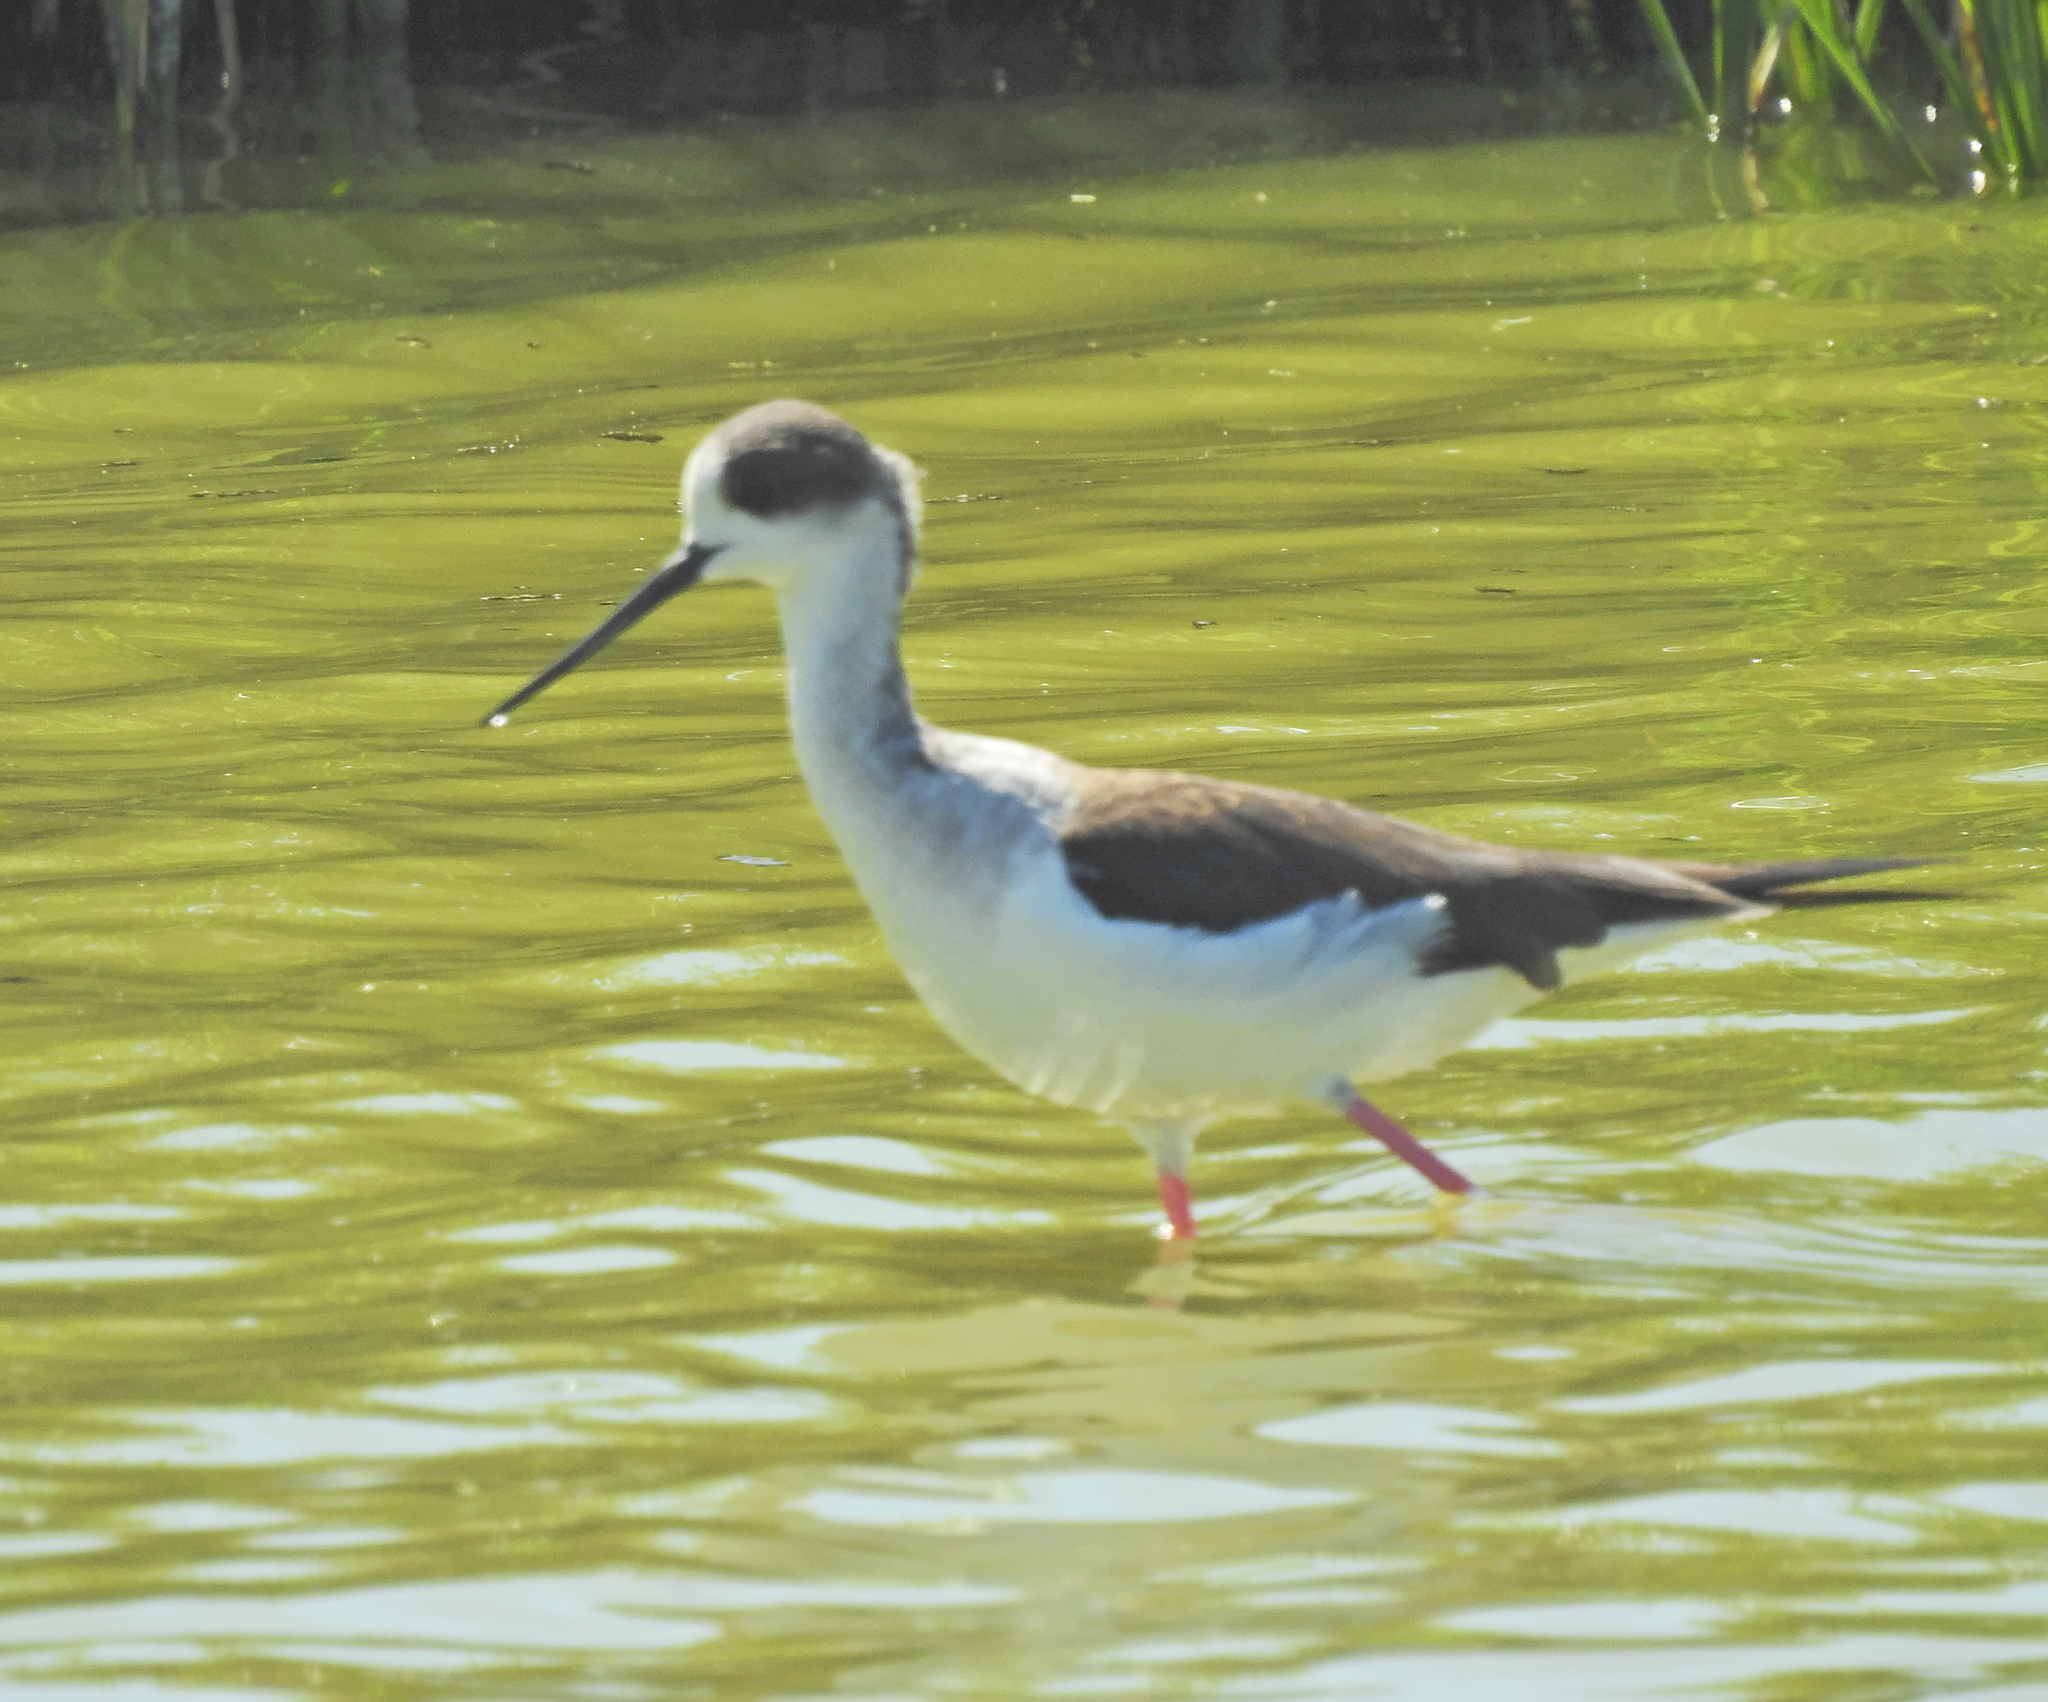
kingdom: Animalia
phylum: Chordata
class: Aves
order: Charadriiformes
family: Recurvirostridae
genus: Himantopus
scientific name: Himantopus himantopus
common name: Black-winged stilt
